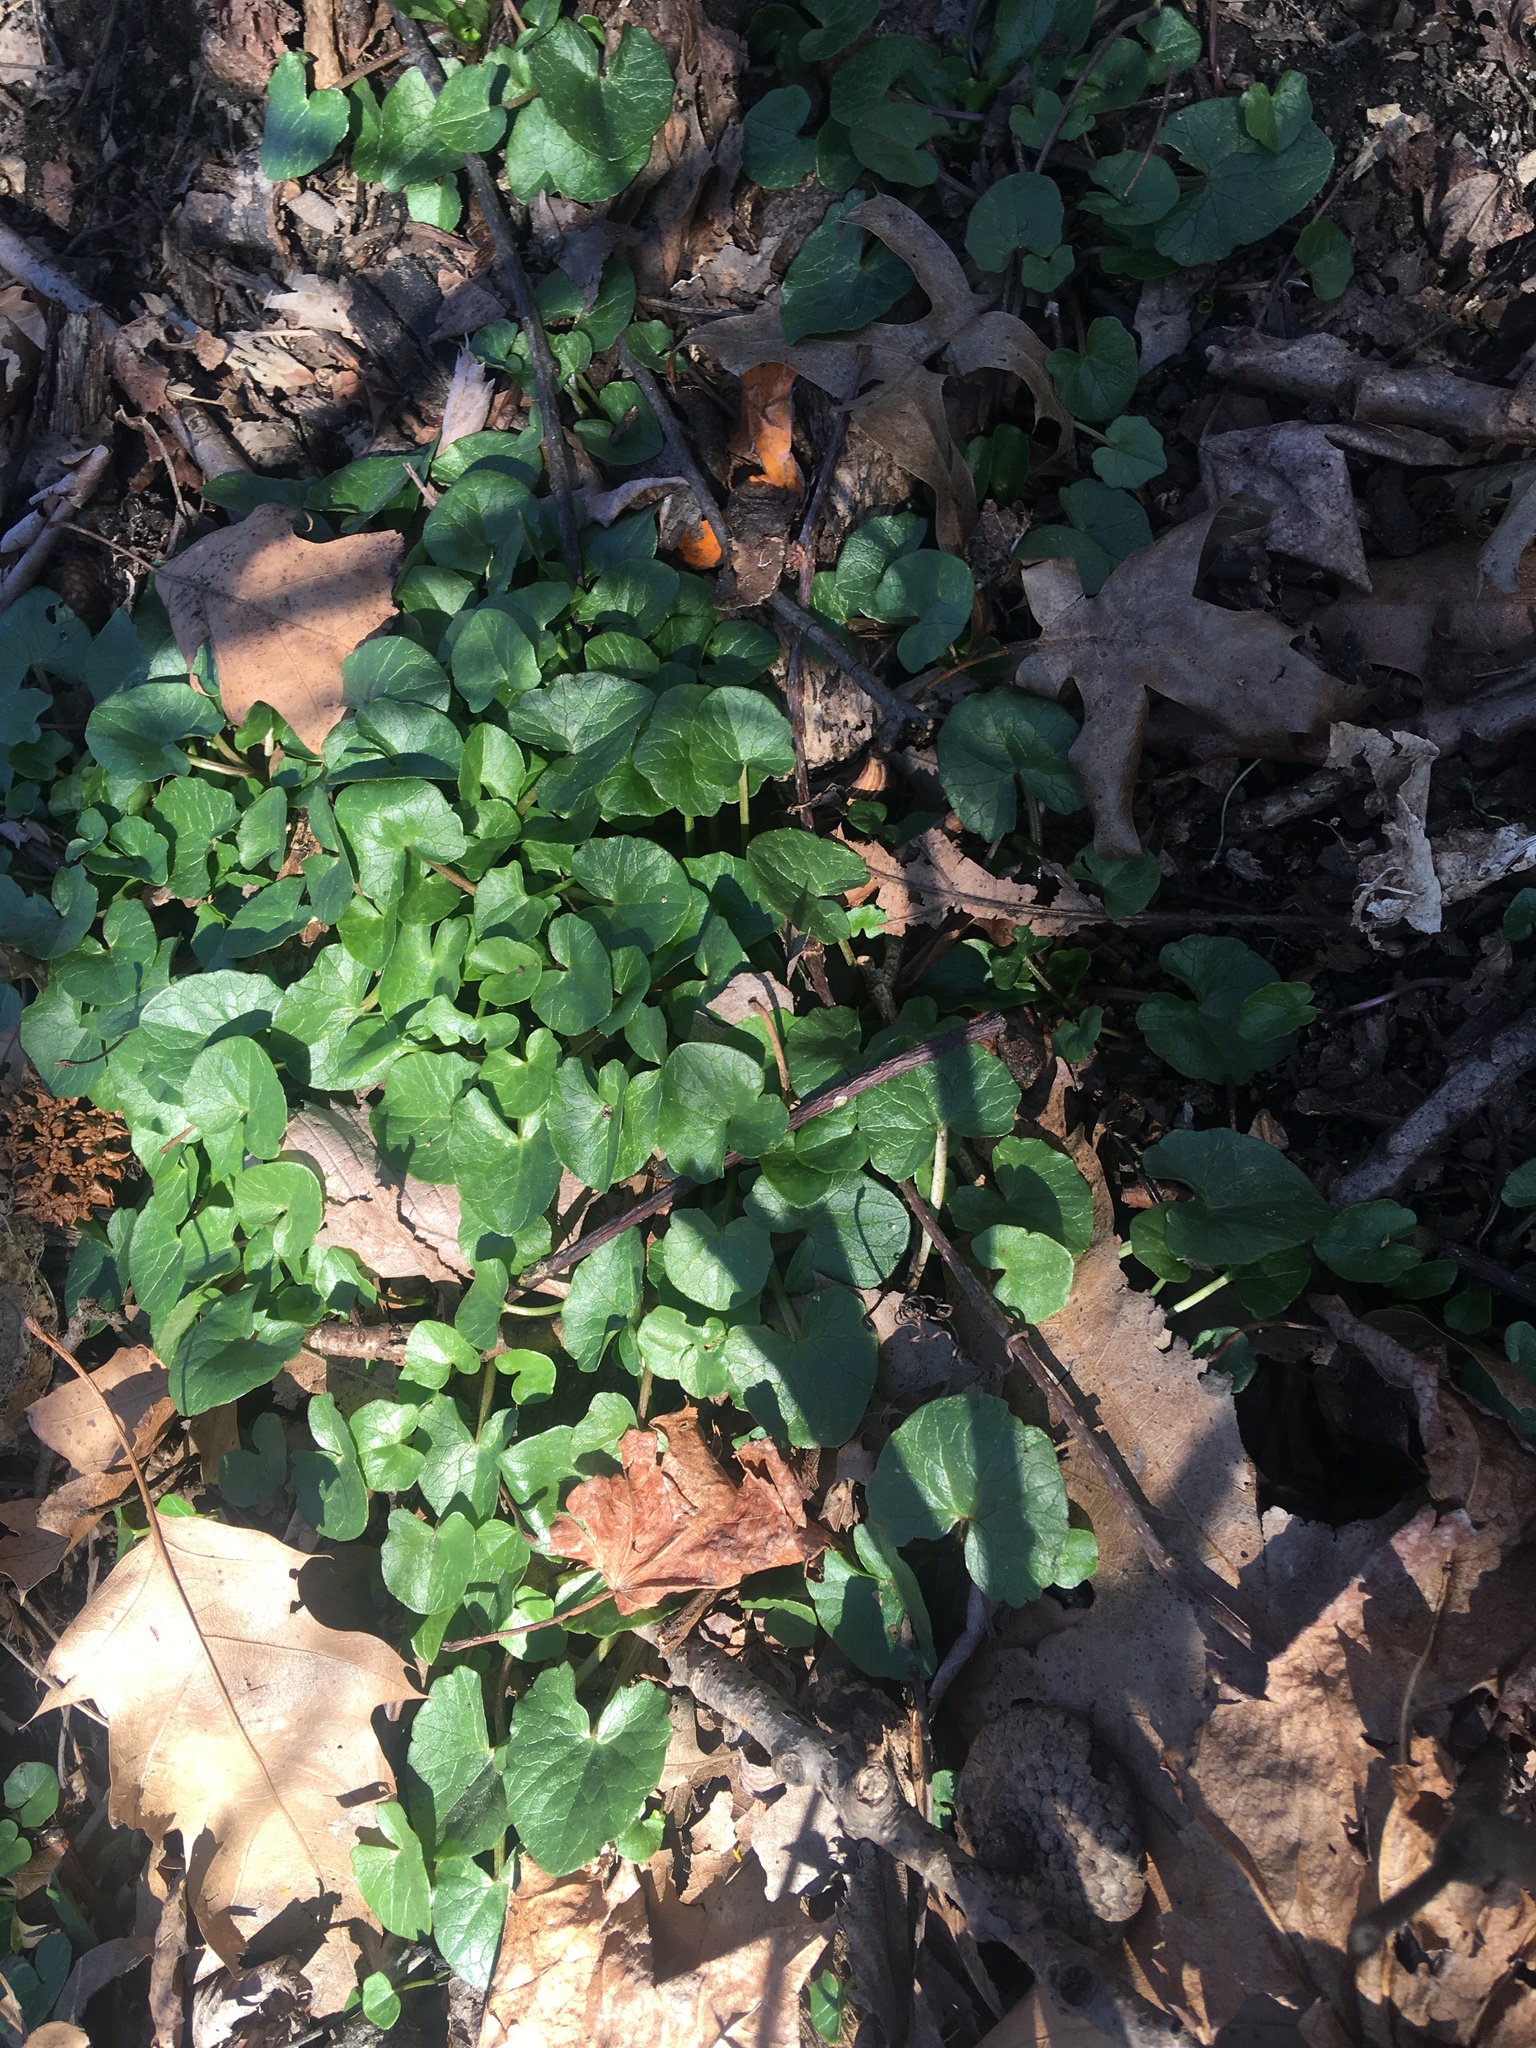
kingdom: Plantae
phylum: Tracheophyta
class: Magnoliopsida
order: Ranunculales
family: Ranunculaceae
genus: Ficaria
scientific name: Ficaria verna
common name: Lesser celandine
